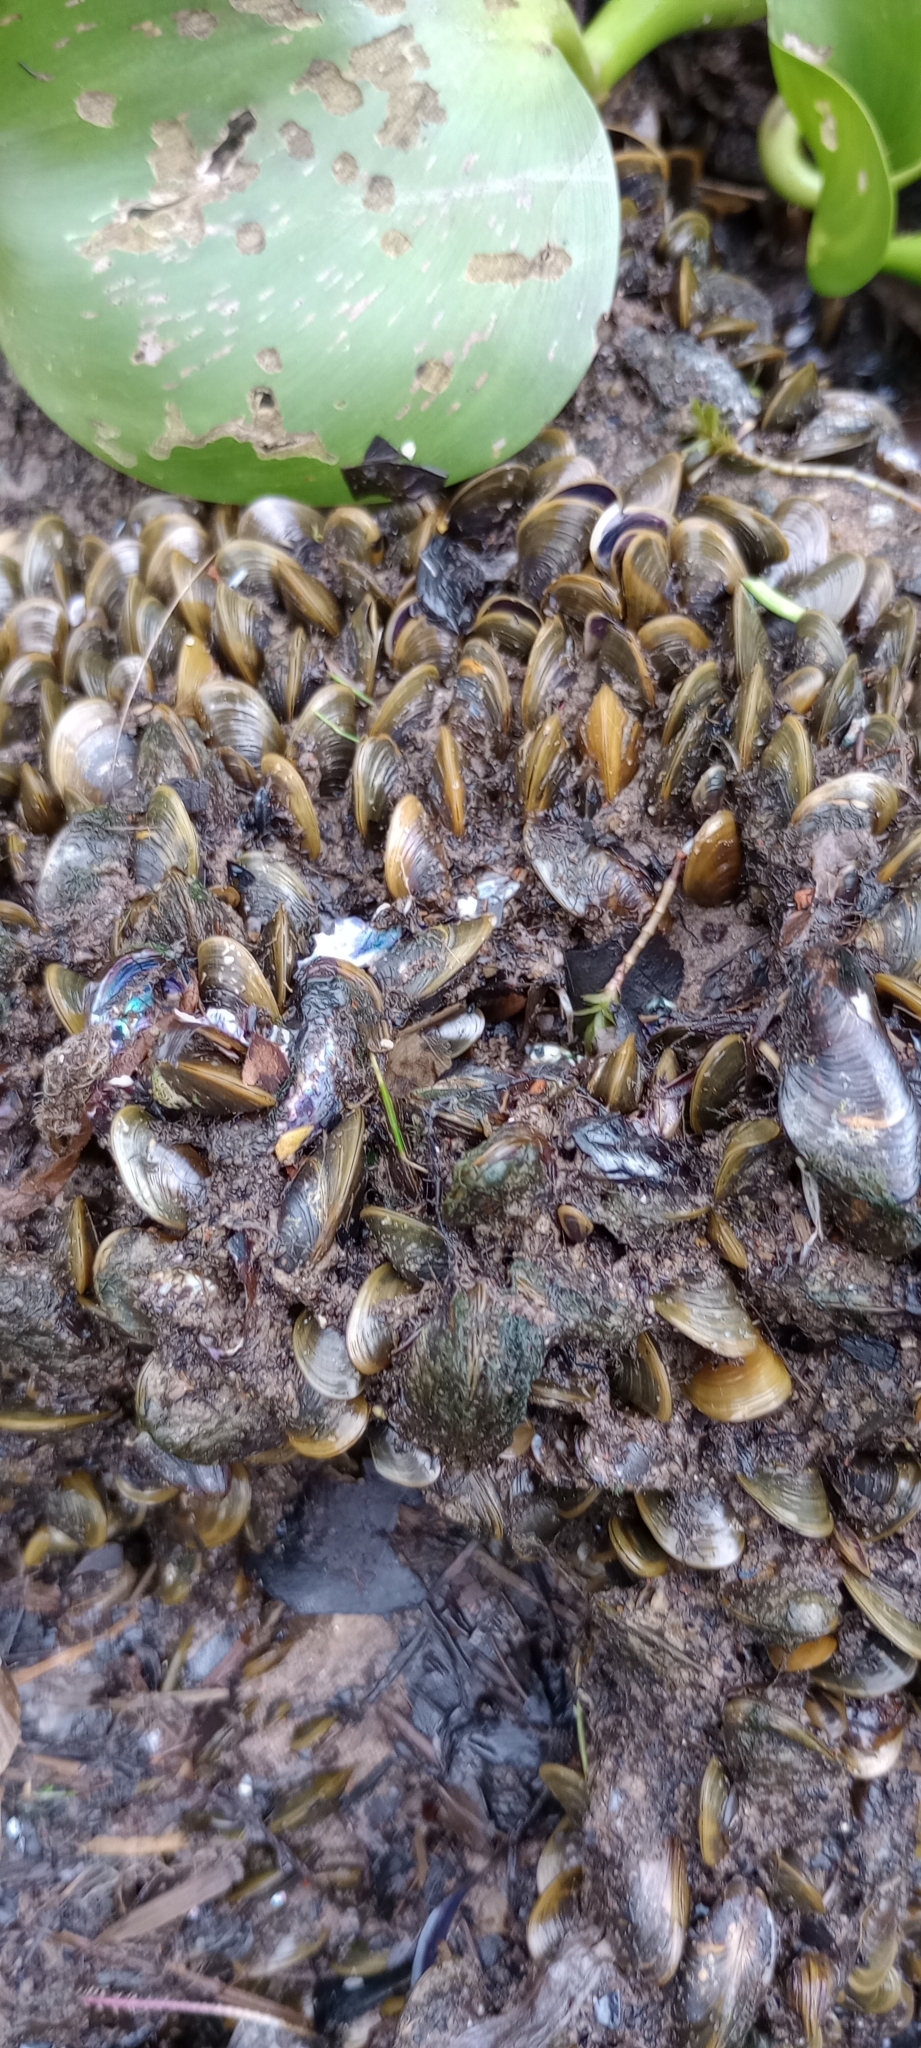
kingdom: Animalia
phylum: Mollusca
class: Bivalvia
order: Mytilida
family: Mytilidae
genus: Limnoperna
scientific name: Limnoperna fortunei
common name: Golden mussel
